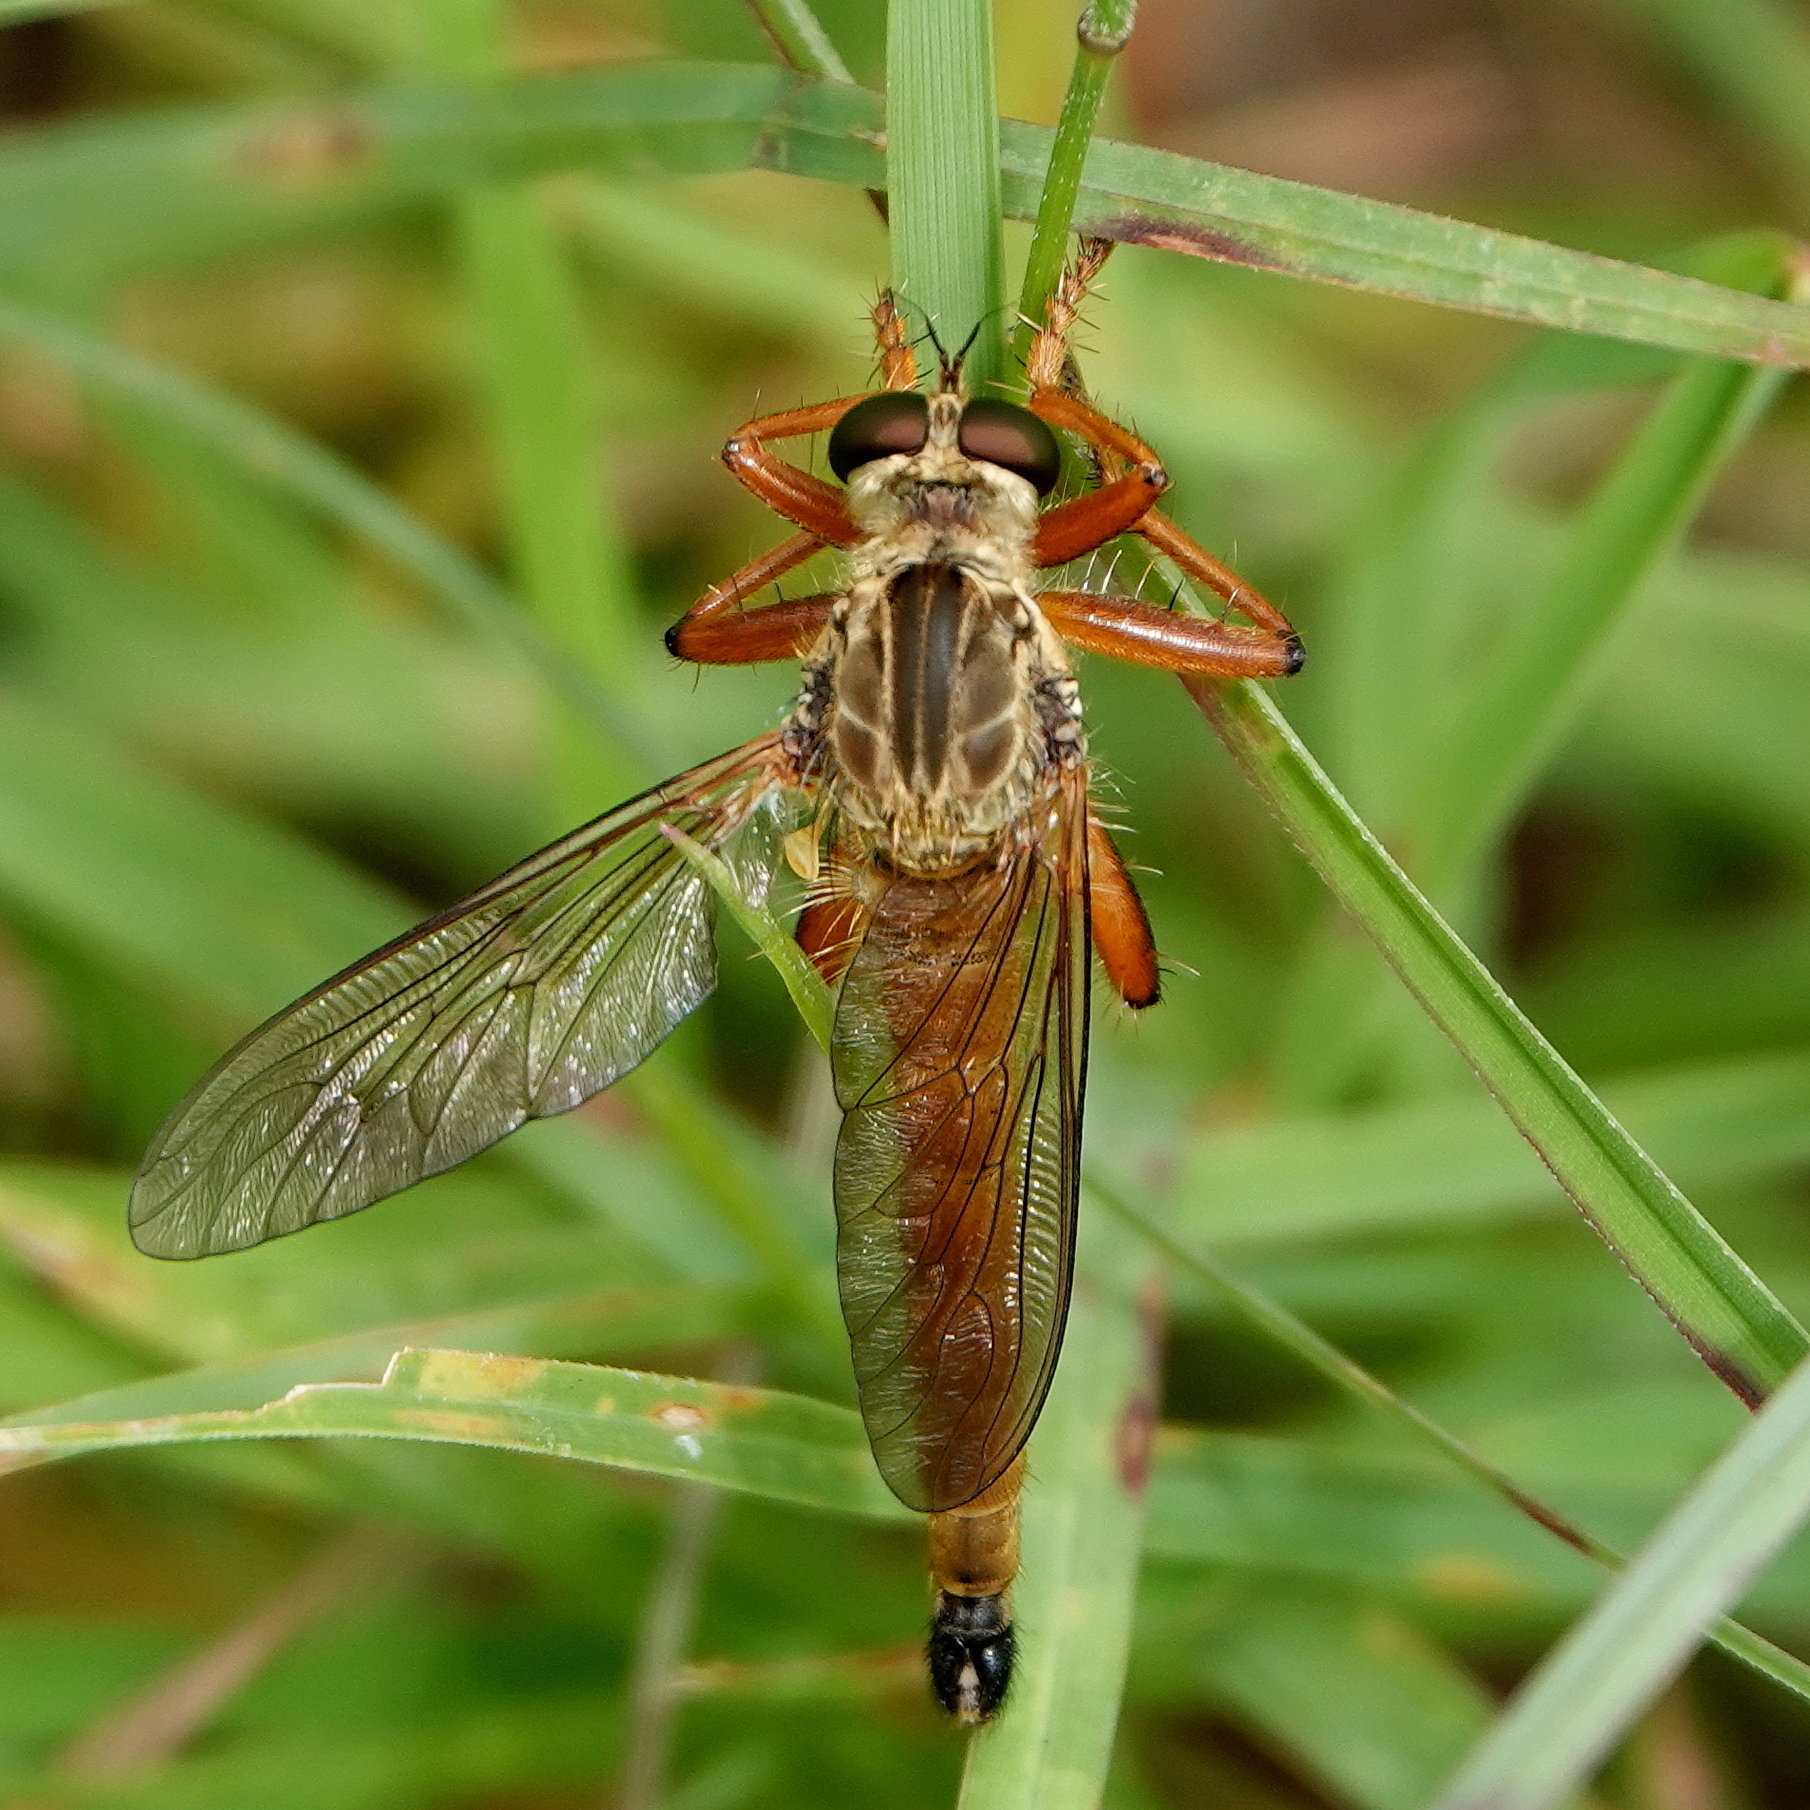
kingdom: Animalia
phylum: Arthropoda
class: Insecta
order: Diptera
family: Asilidae
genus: Zosteria
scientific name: Zosteria fulvipubescens
